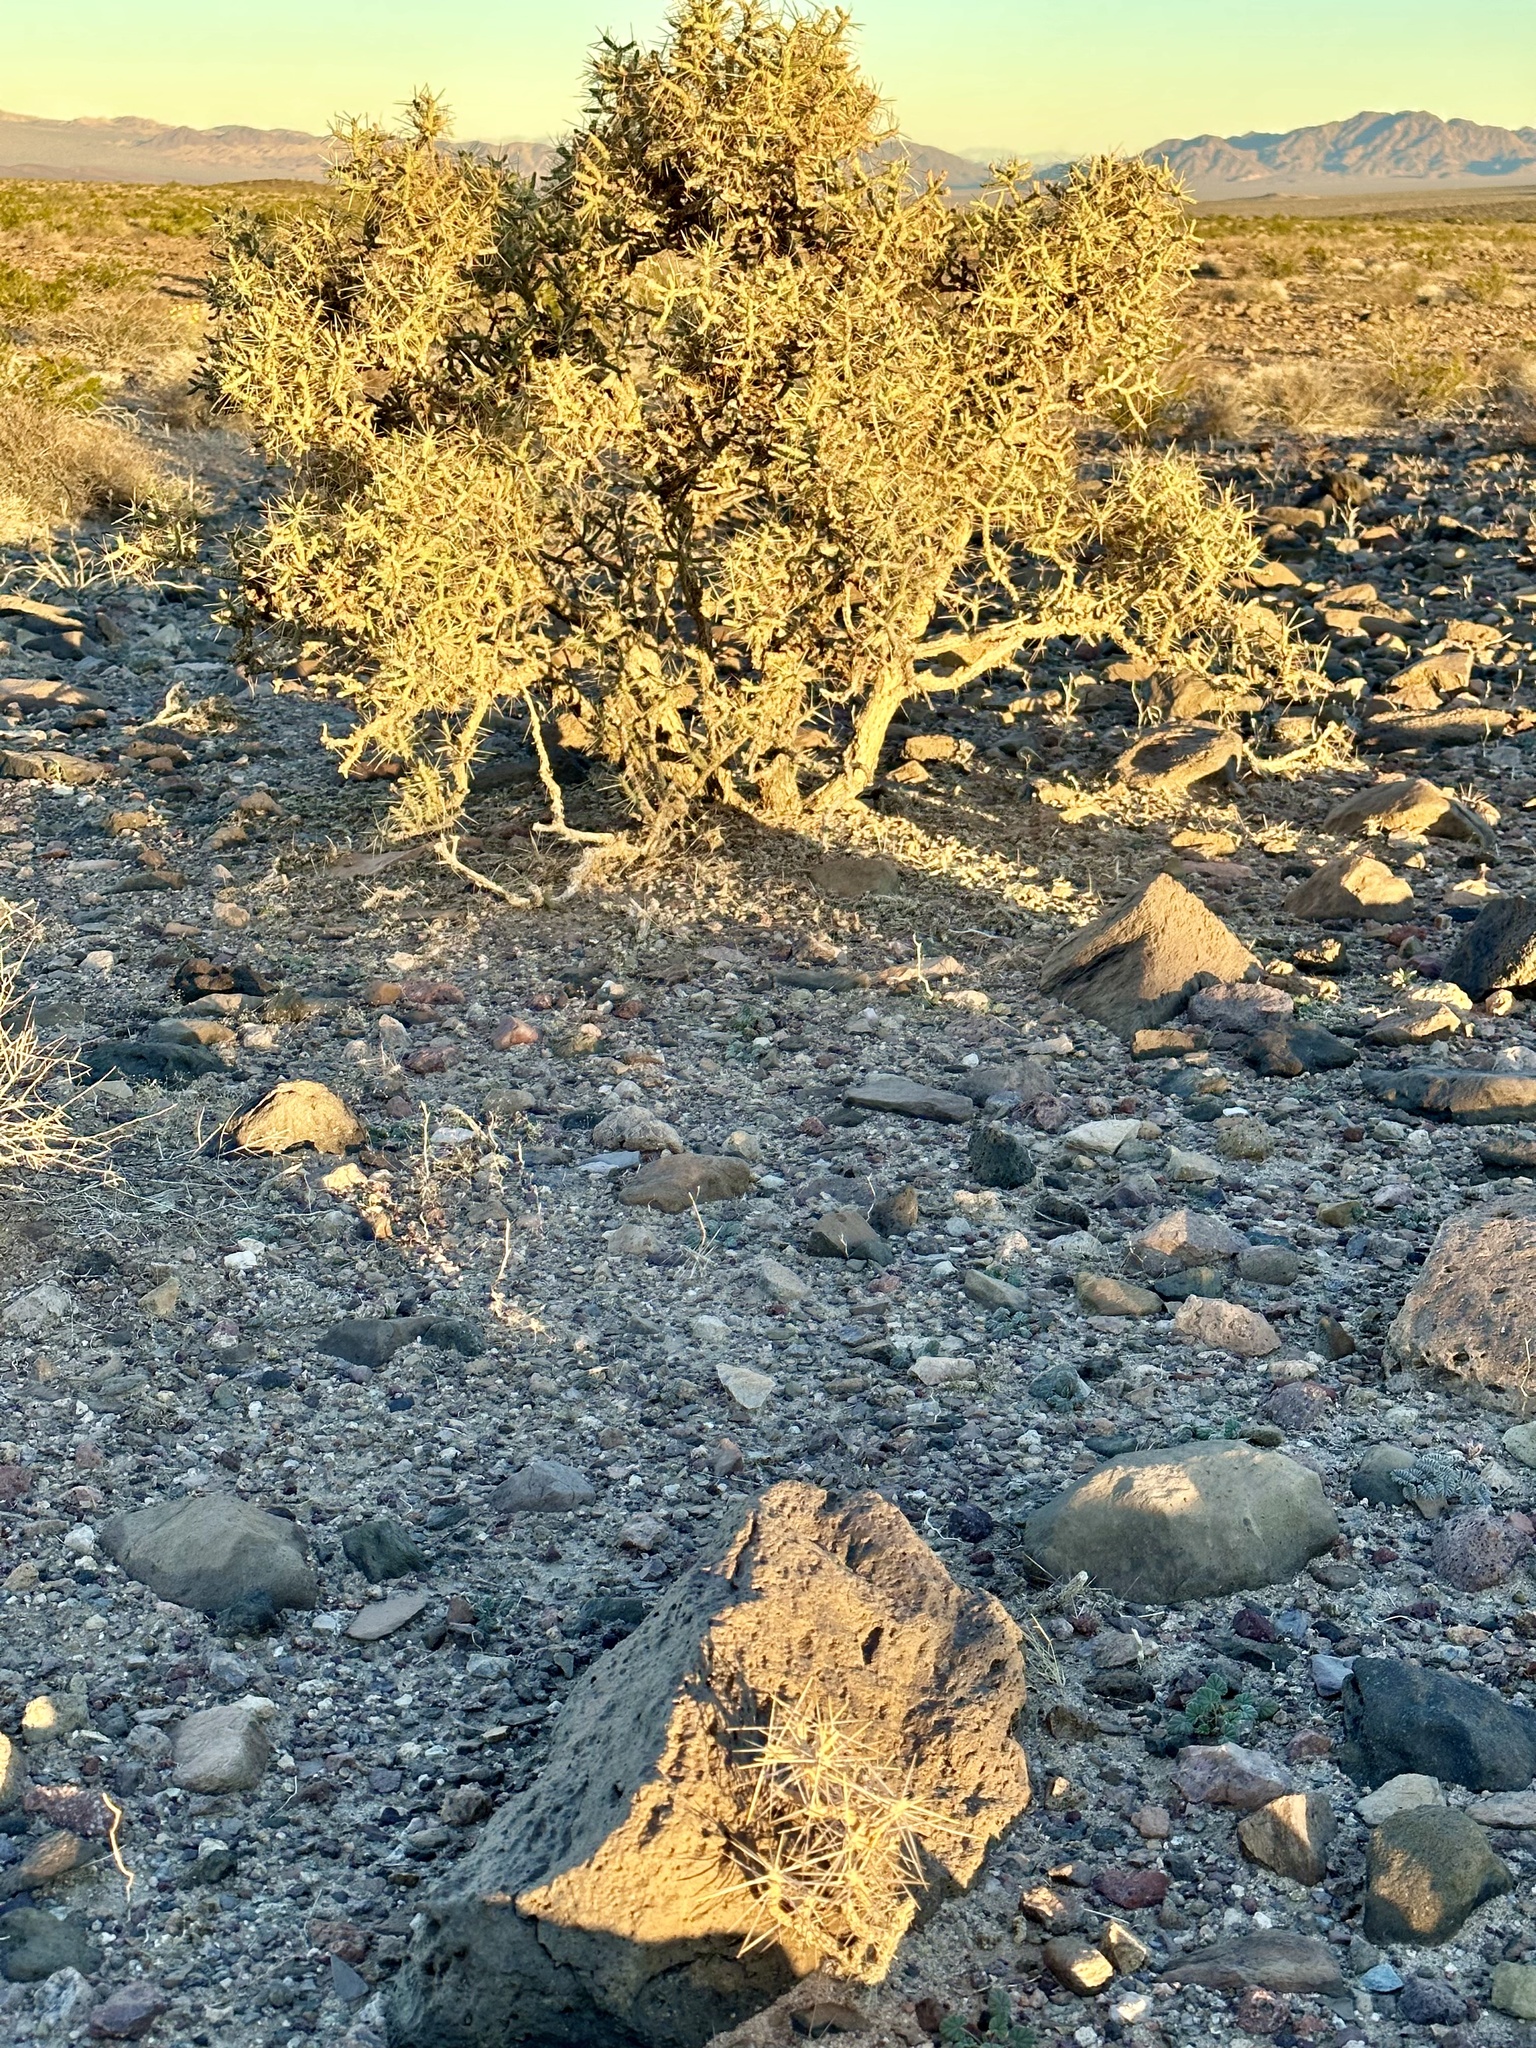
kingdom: Plantae
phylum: Tracheophyta
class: Magnoliopsida
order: Caryophyllales
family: Cactaceae
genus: Cylindropuntia
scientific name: Cylindropuntia ramosissima
